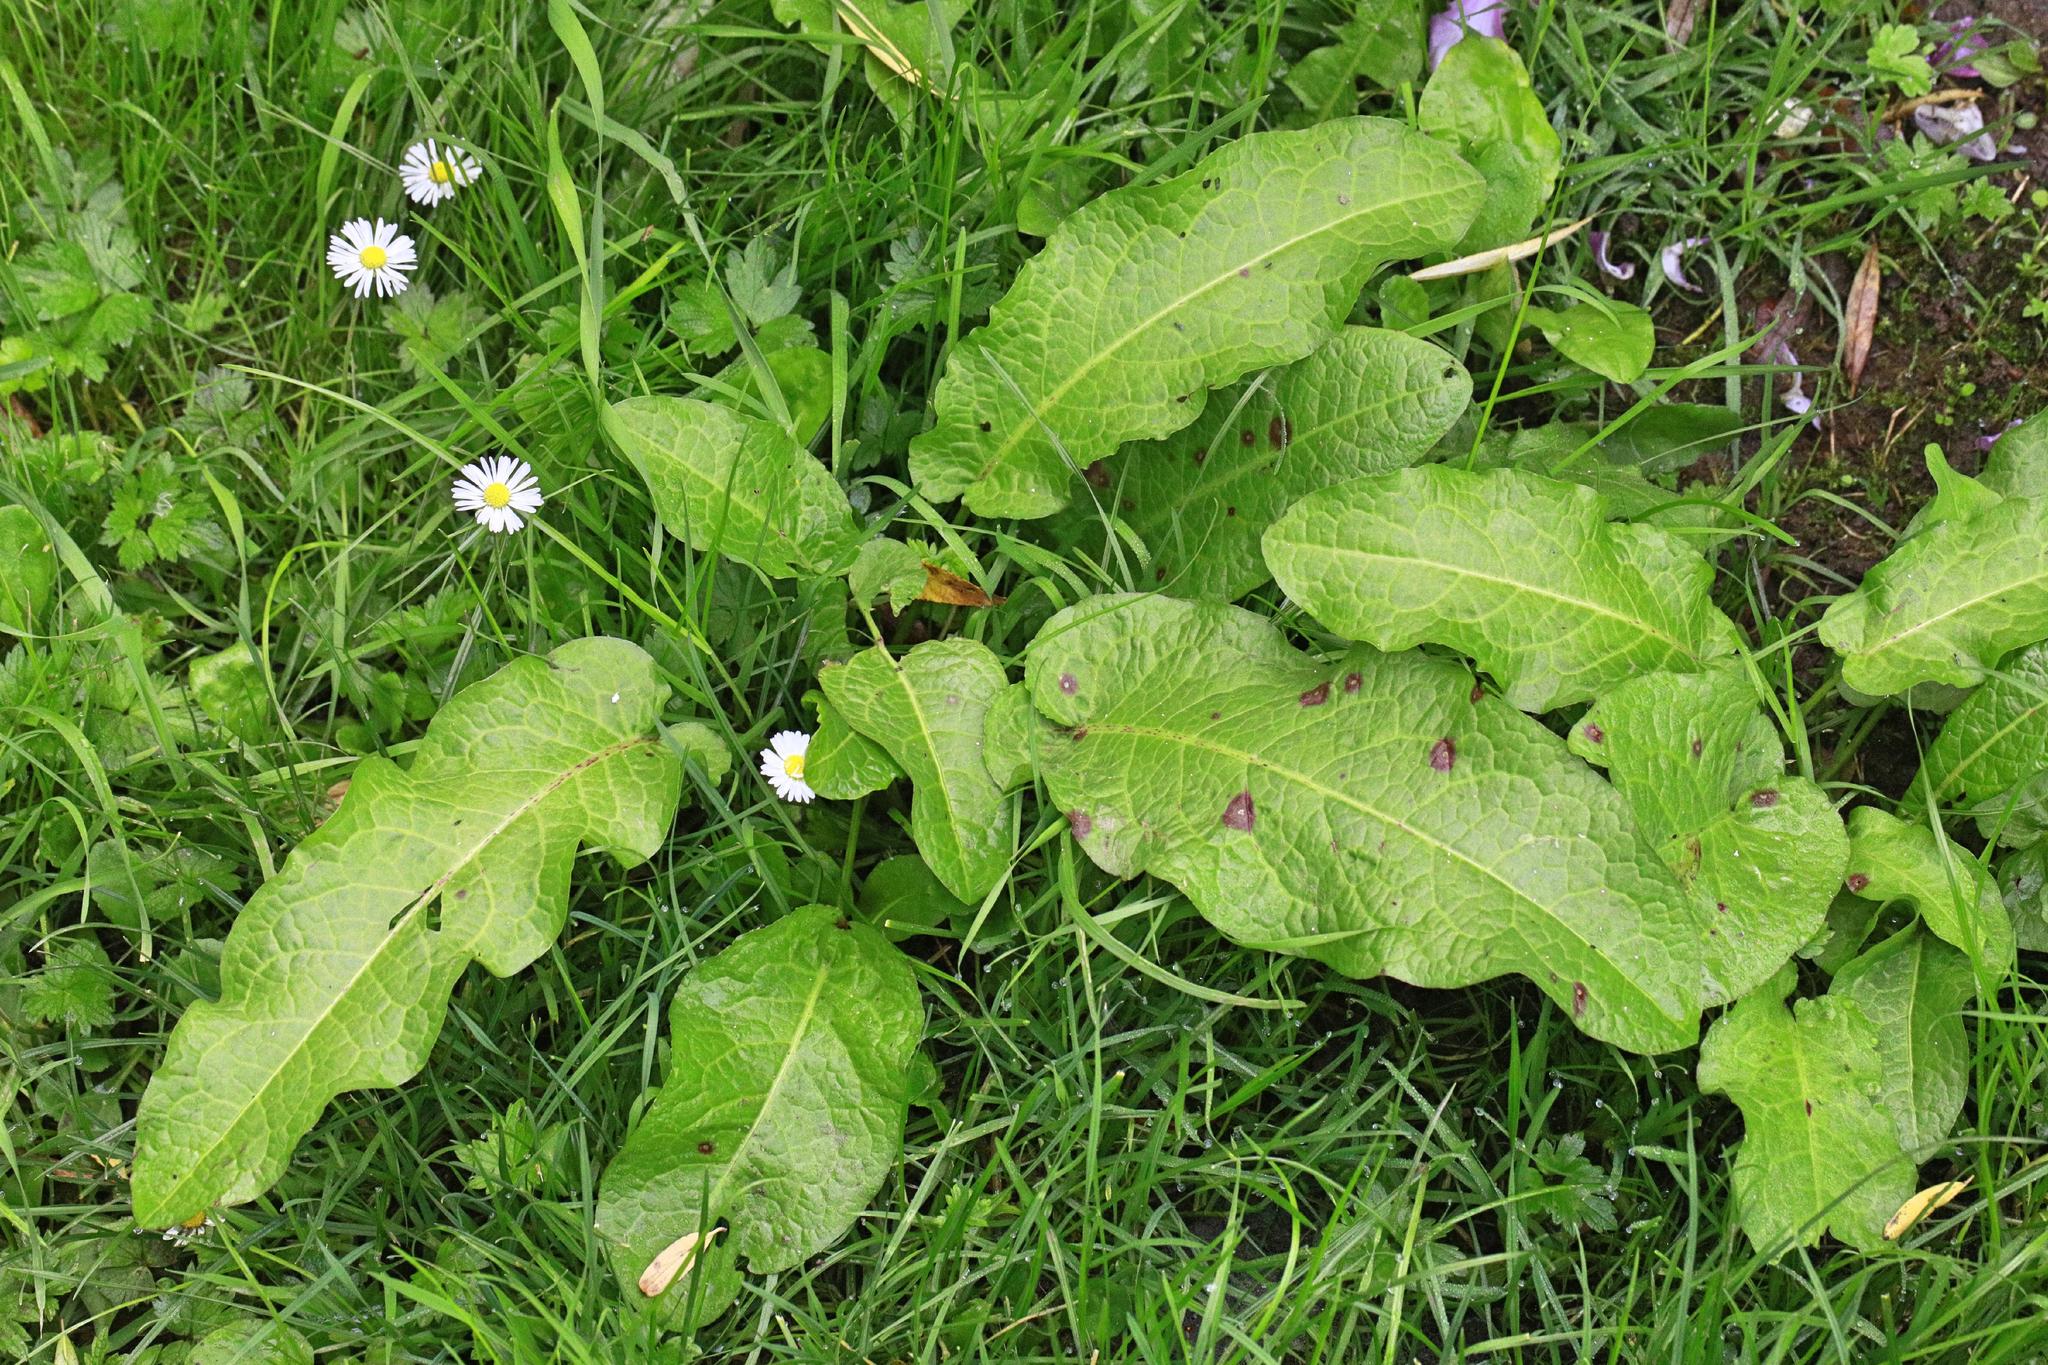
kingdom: Plantae
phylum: Tracheophyta
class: Magnoliopsida
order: Caryophyllales
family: Polygonaceae
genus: Rumex
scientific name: Rumex obtusifolius
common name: Bitter dock
